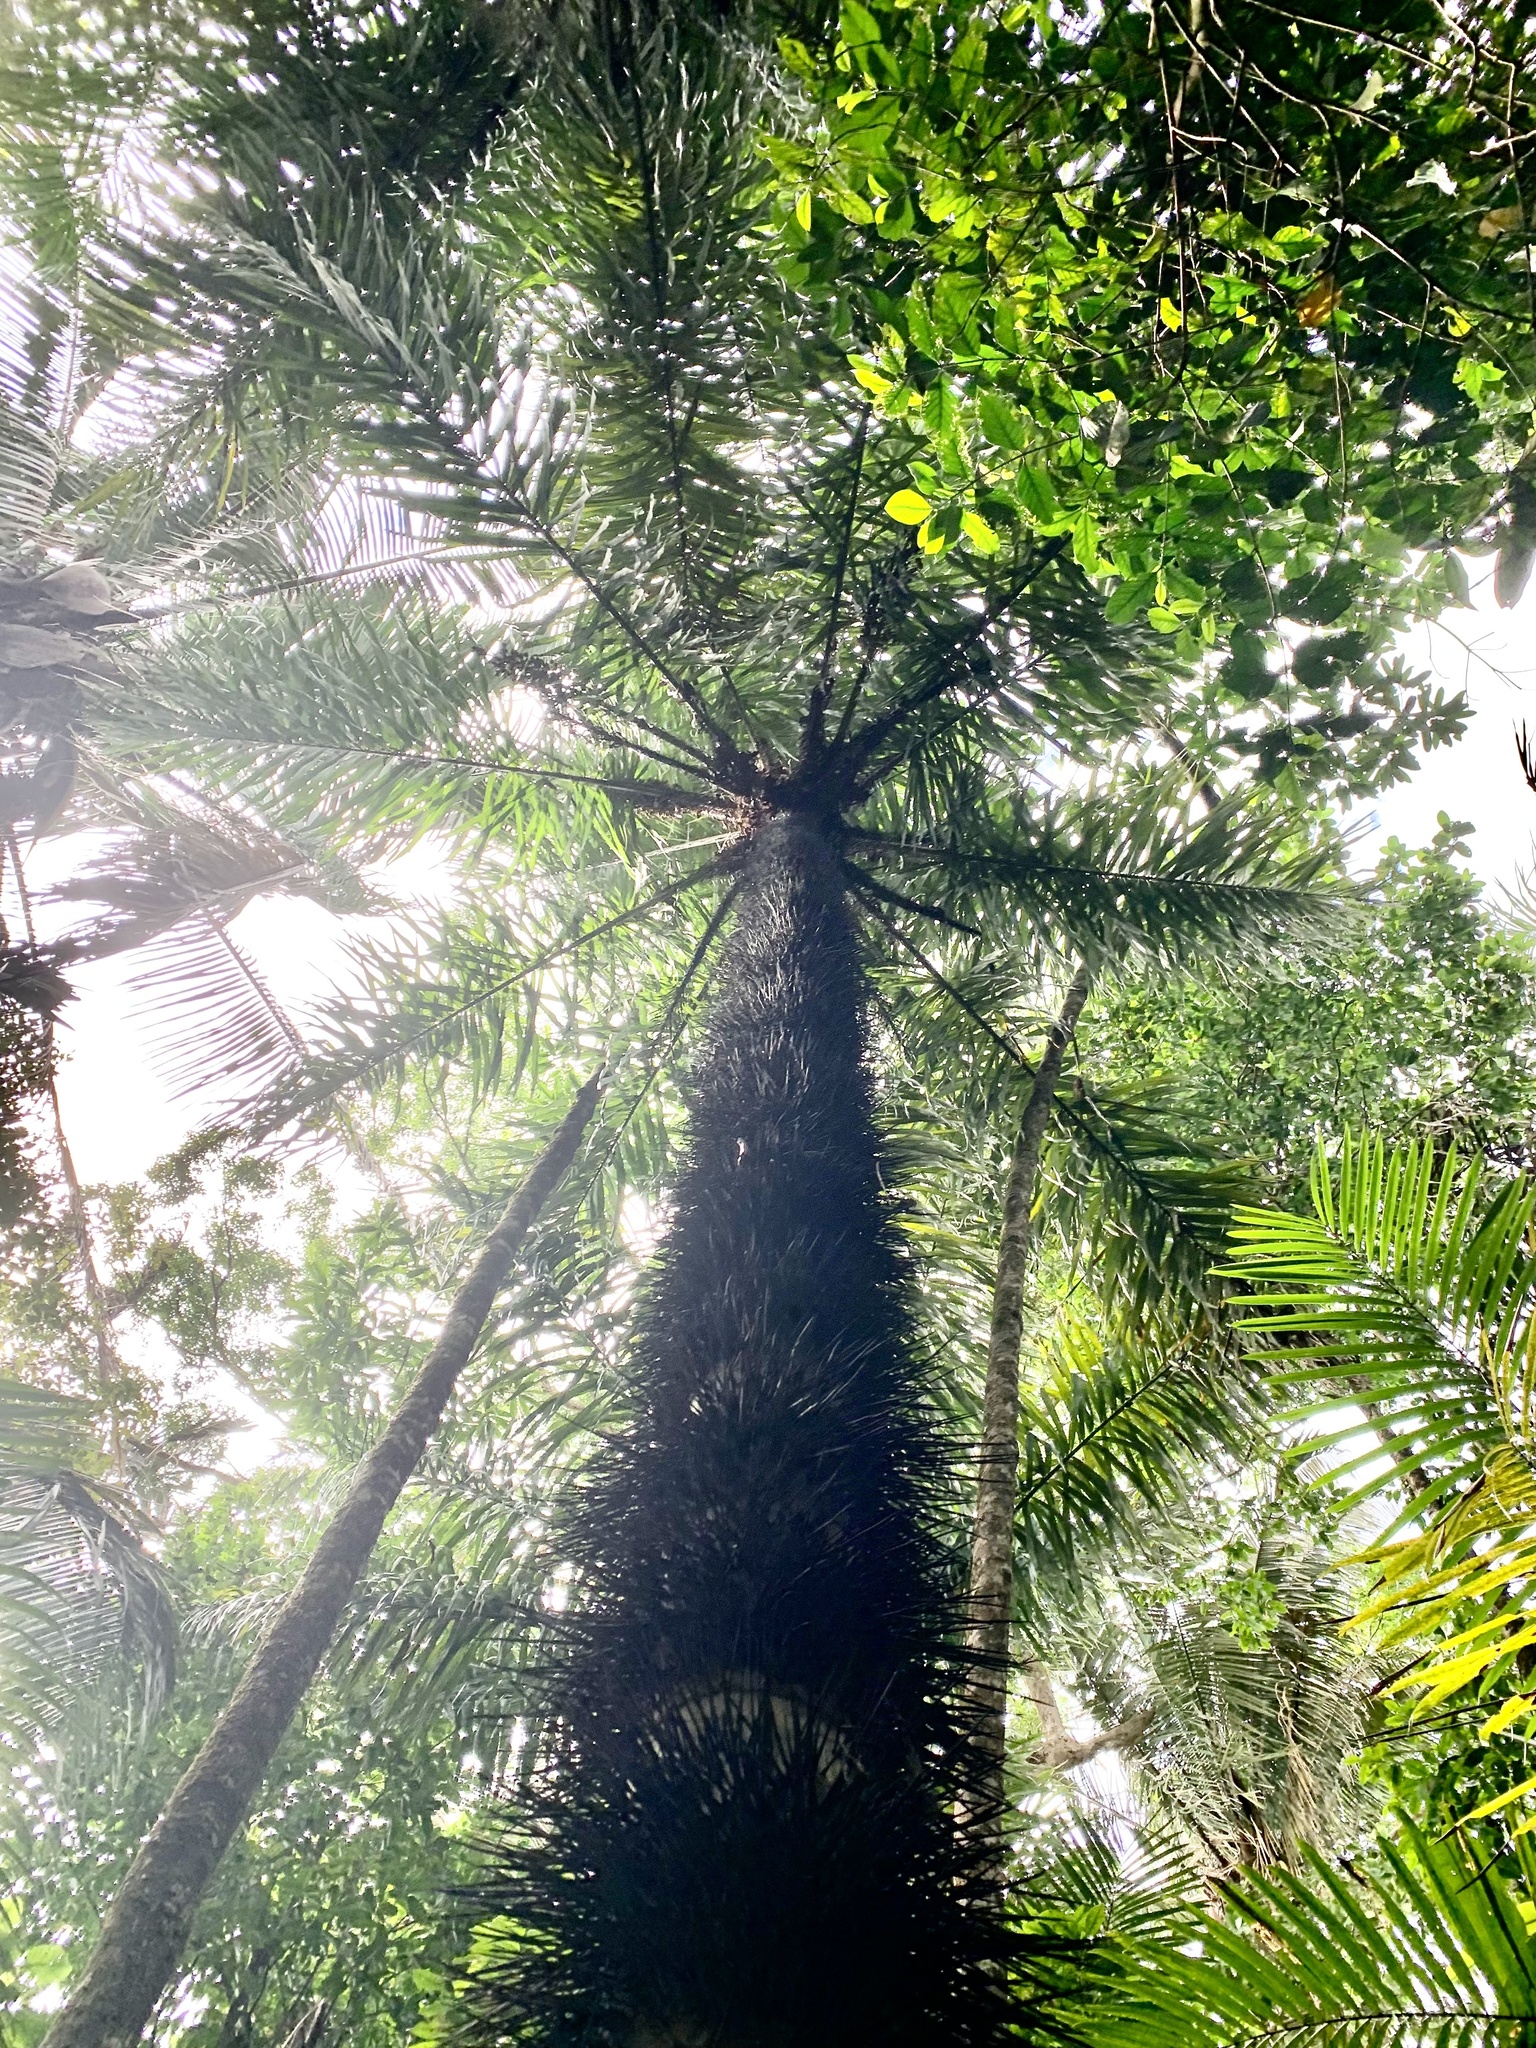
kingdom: Plantae
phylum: Tracheophyta
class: Liliopsida
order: Arecales
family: Arecaceae
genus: Astrocaryum
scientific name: Astrocaryum standleyanum
